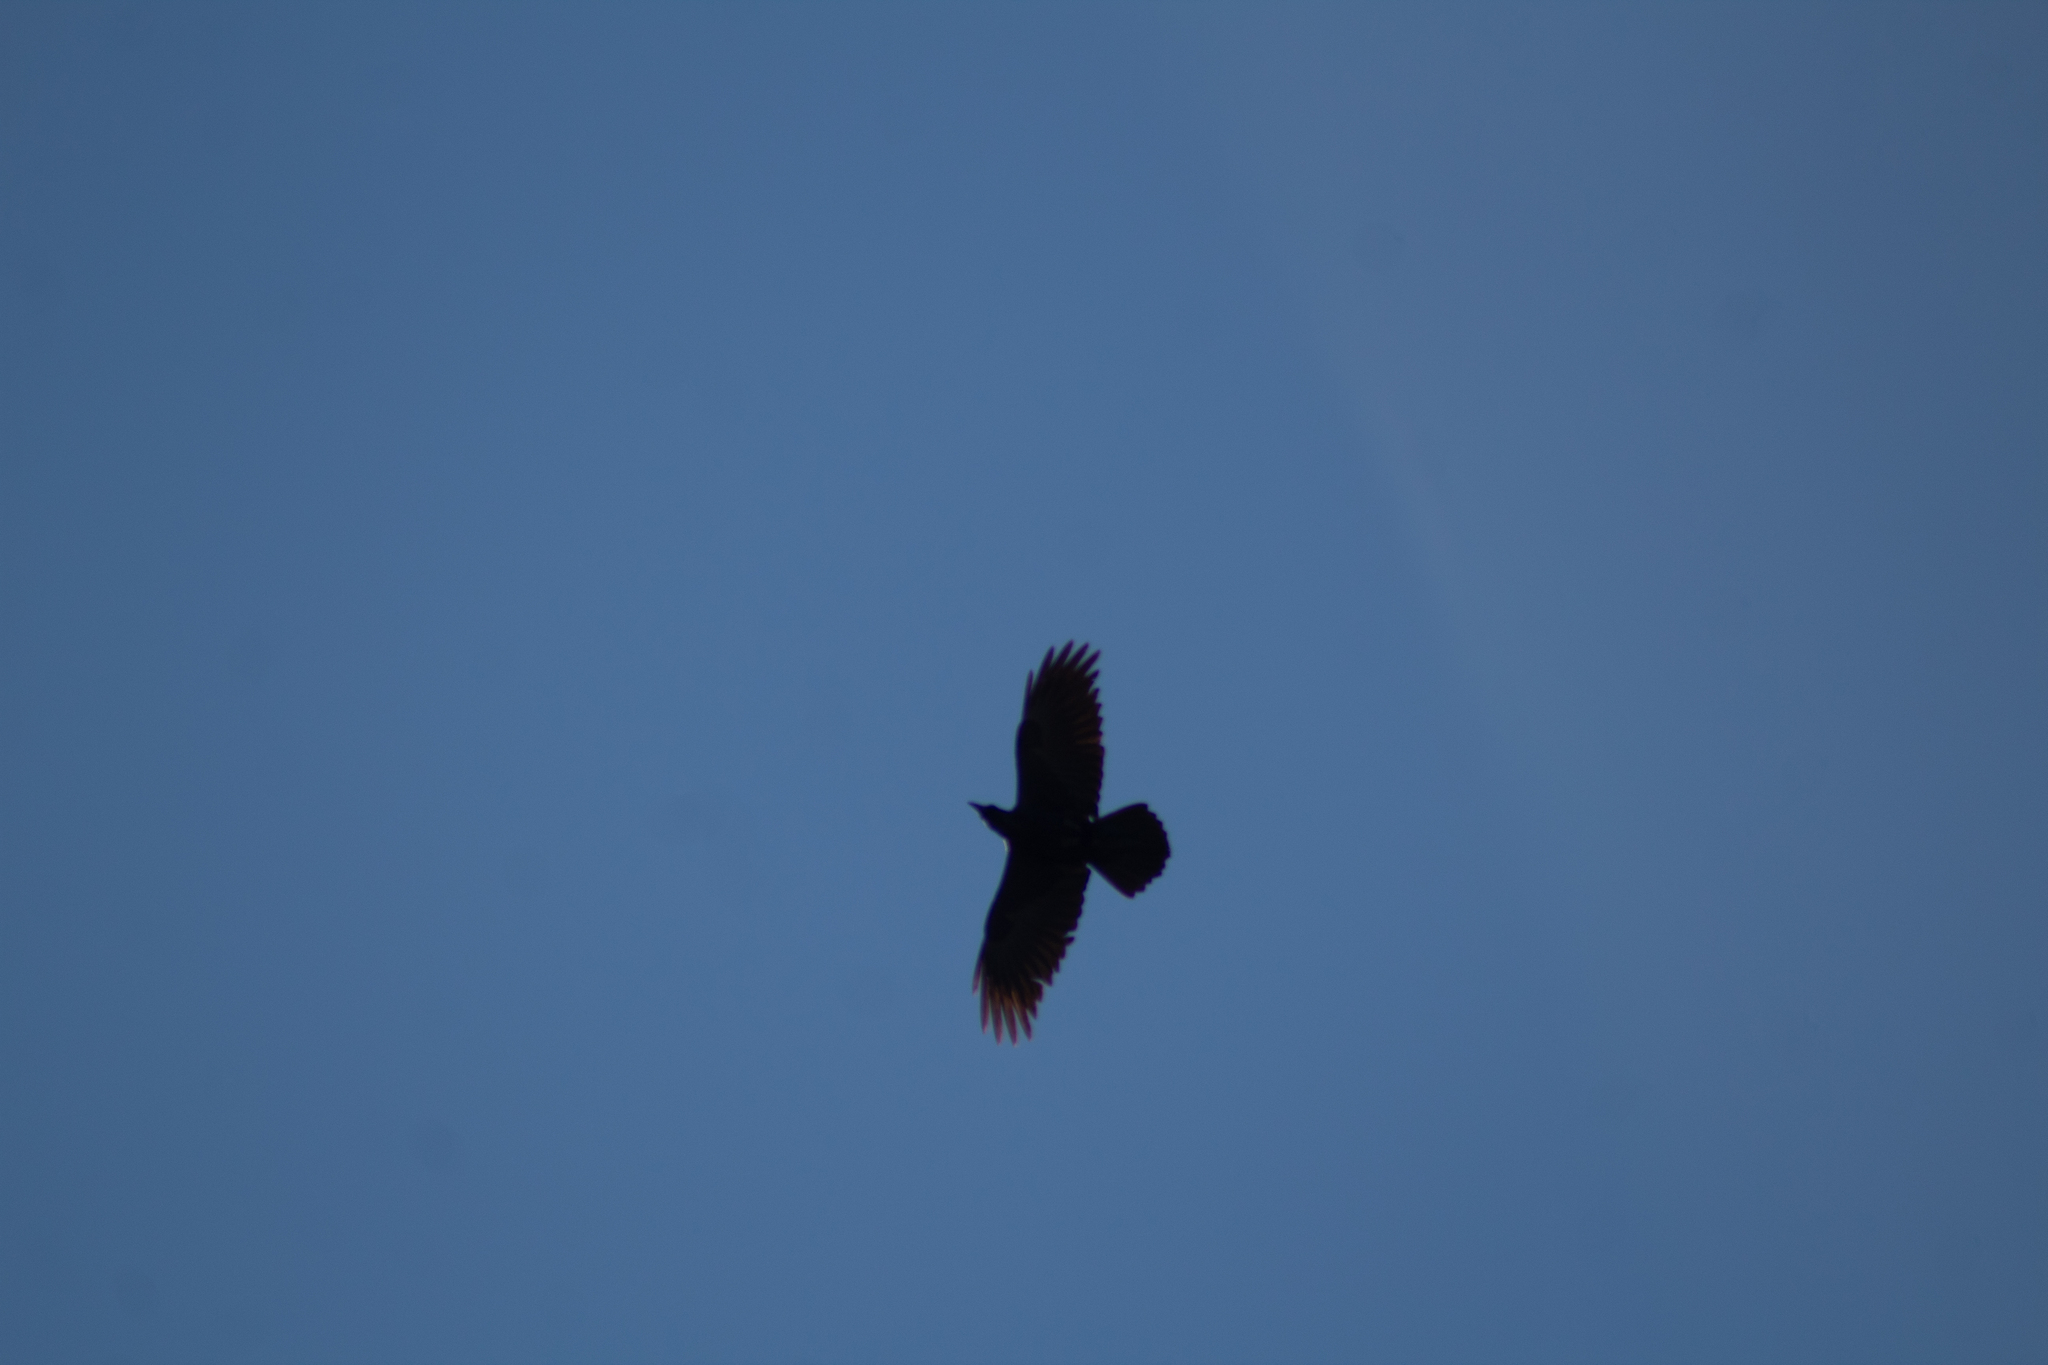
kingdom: Animalia
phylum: Chordata
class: Aves
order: Passeriformes
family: Corvidae
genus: Corvus
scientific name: Corvus corax
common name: Common raven
